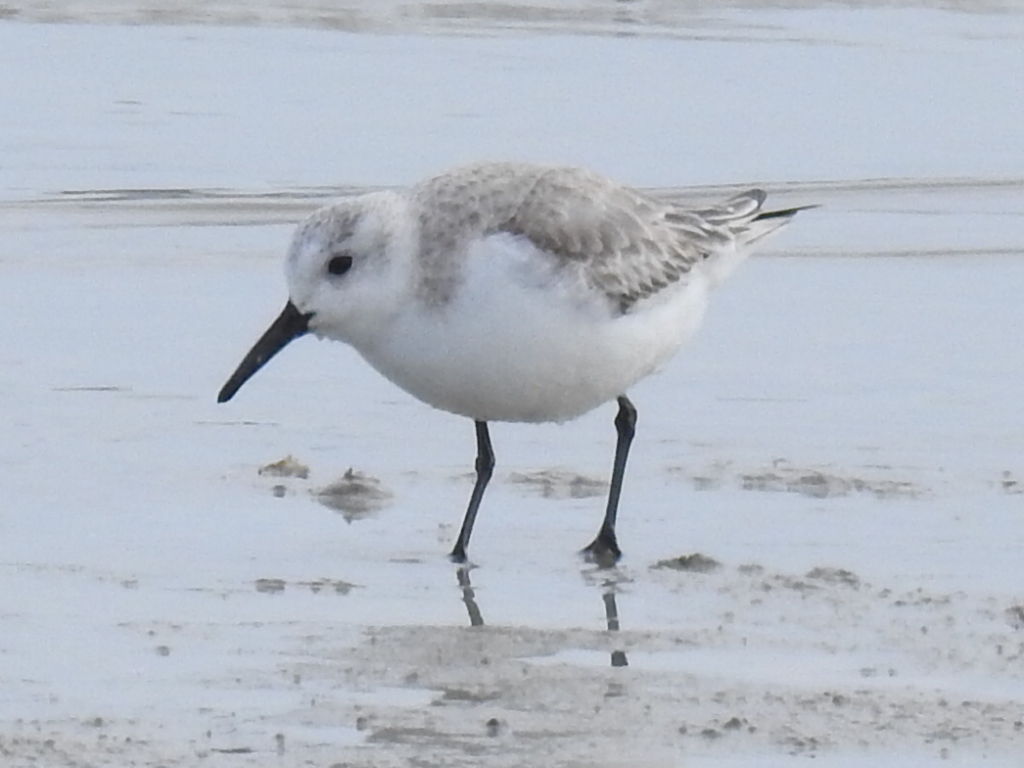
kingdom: Animalia
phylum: Chordata
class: Aves
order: Charadriiformes
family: Scolopacidae
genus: Calidris
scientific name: Calidris alba
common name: Sanderling
